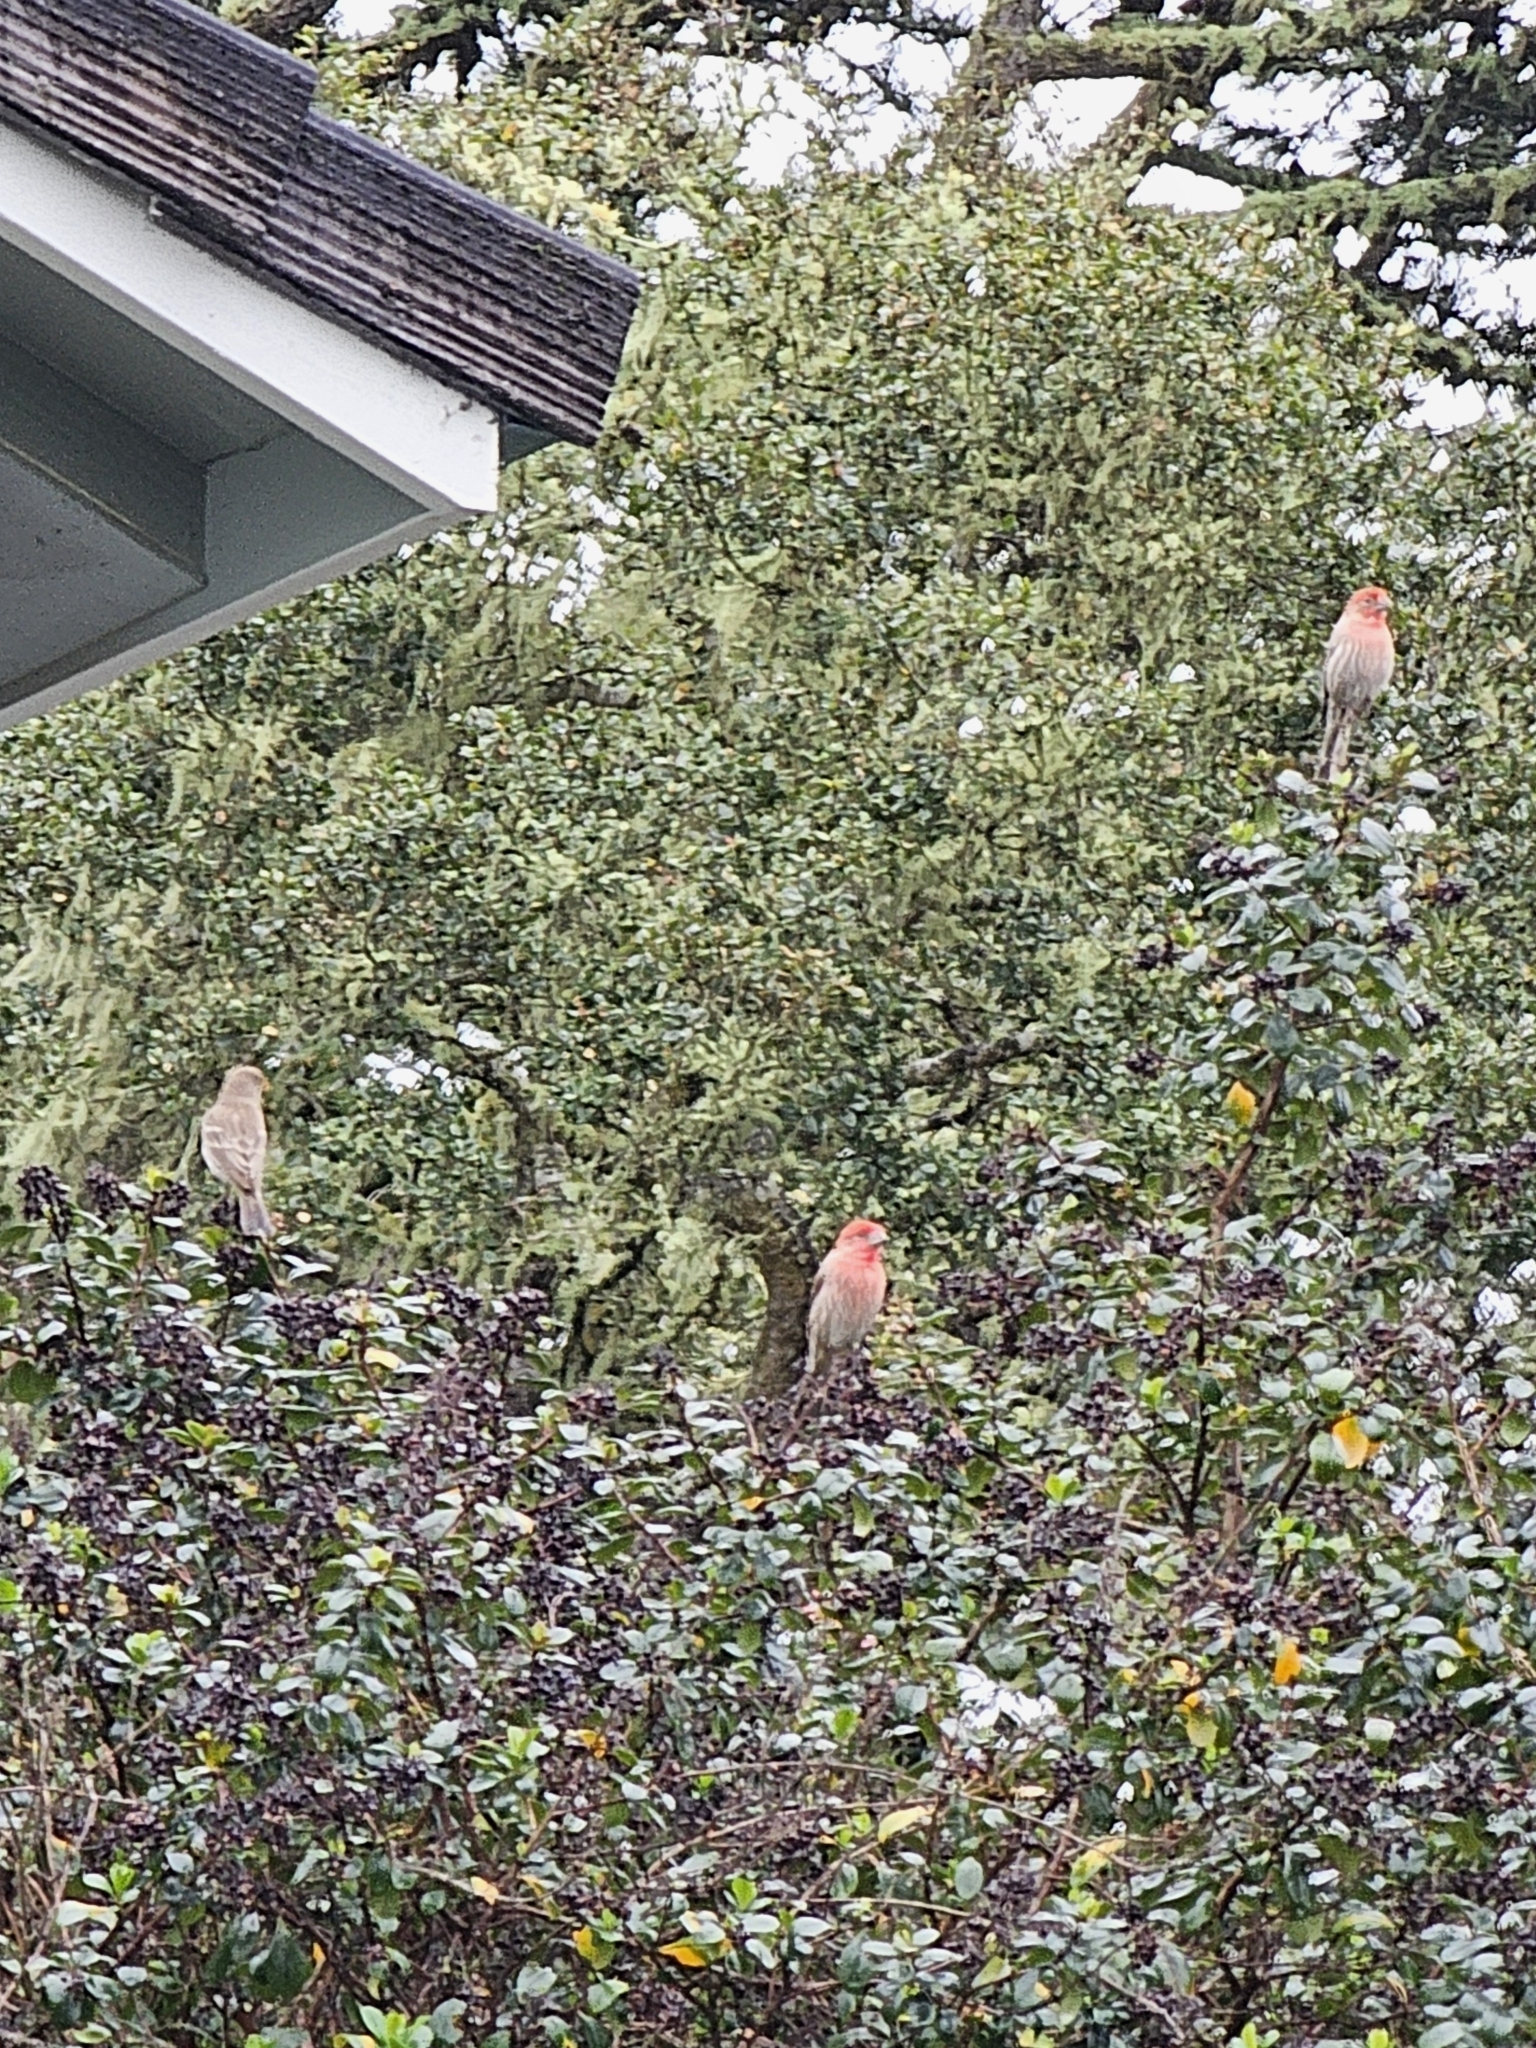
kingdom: Animalia
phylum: Chordata
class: Aves
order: Passeriformes
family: Fringillidae
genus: Haemorhous
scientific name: Haemorhous mexicanus
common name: House finch
